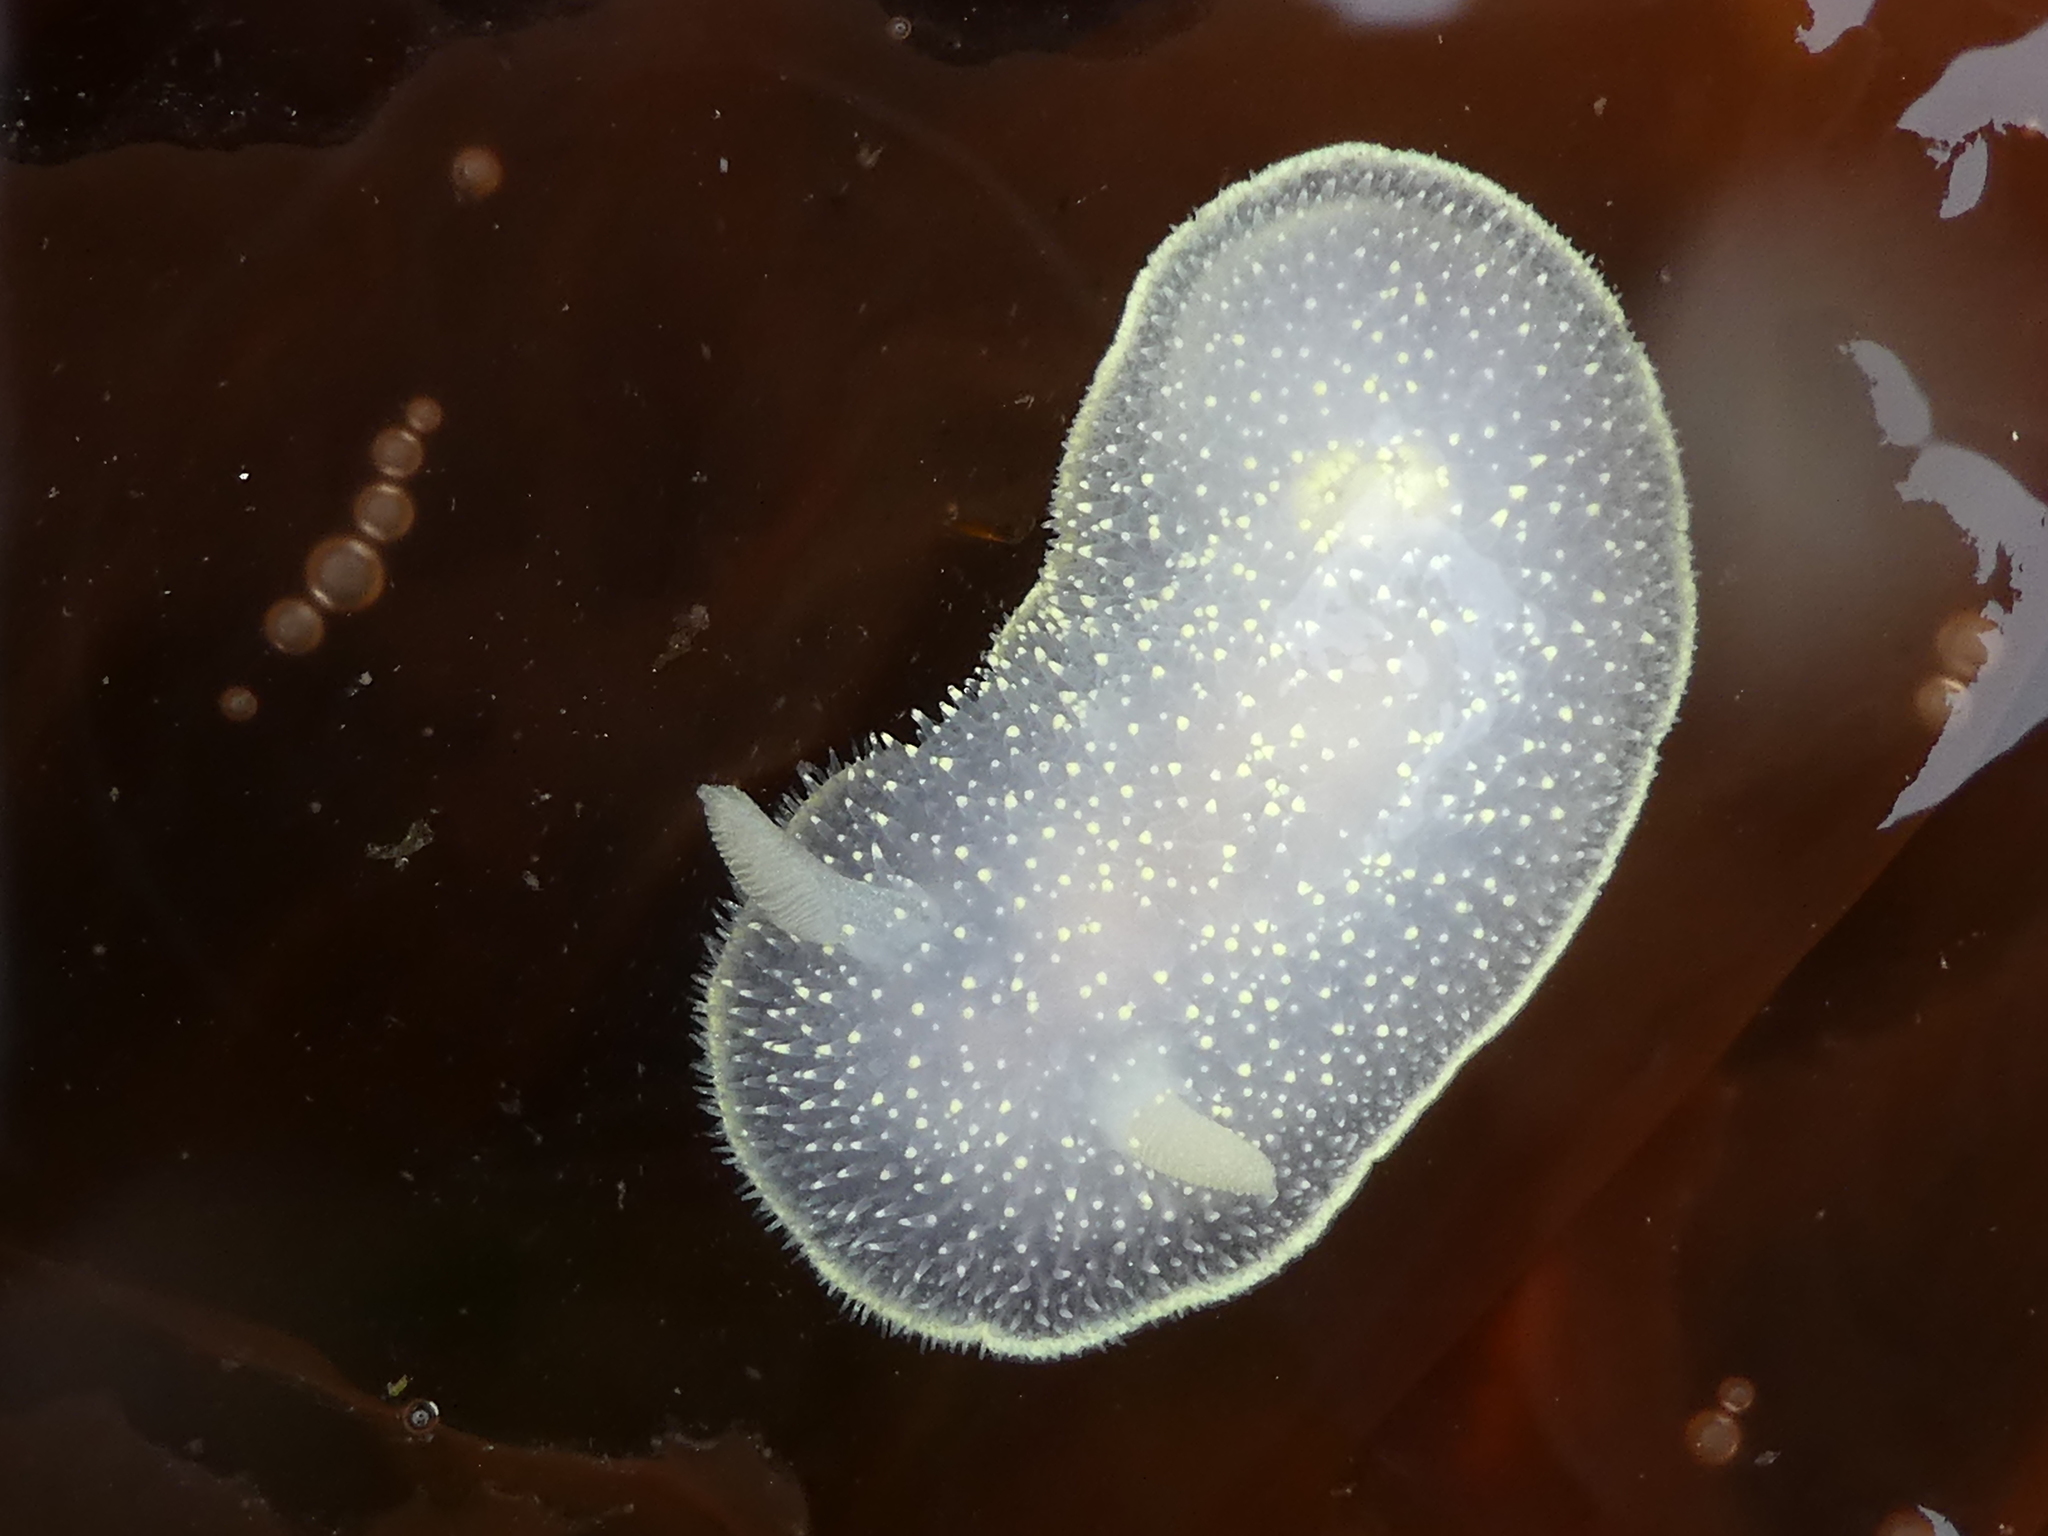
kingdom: Animalia
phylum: Mollusca
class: Gastropoda
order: Nudibranchia
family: Onchidorididae
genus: Acanthodoris
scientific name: Acanthodoris hudsoni
